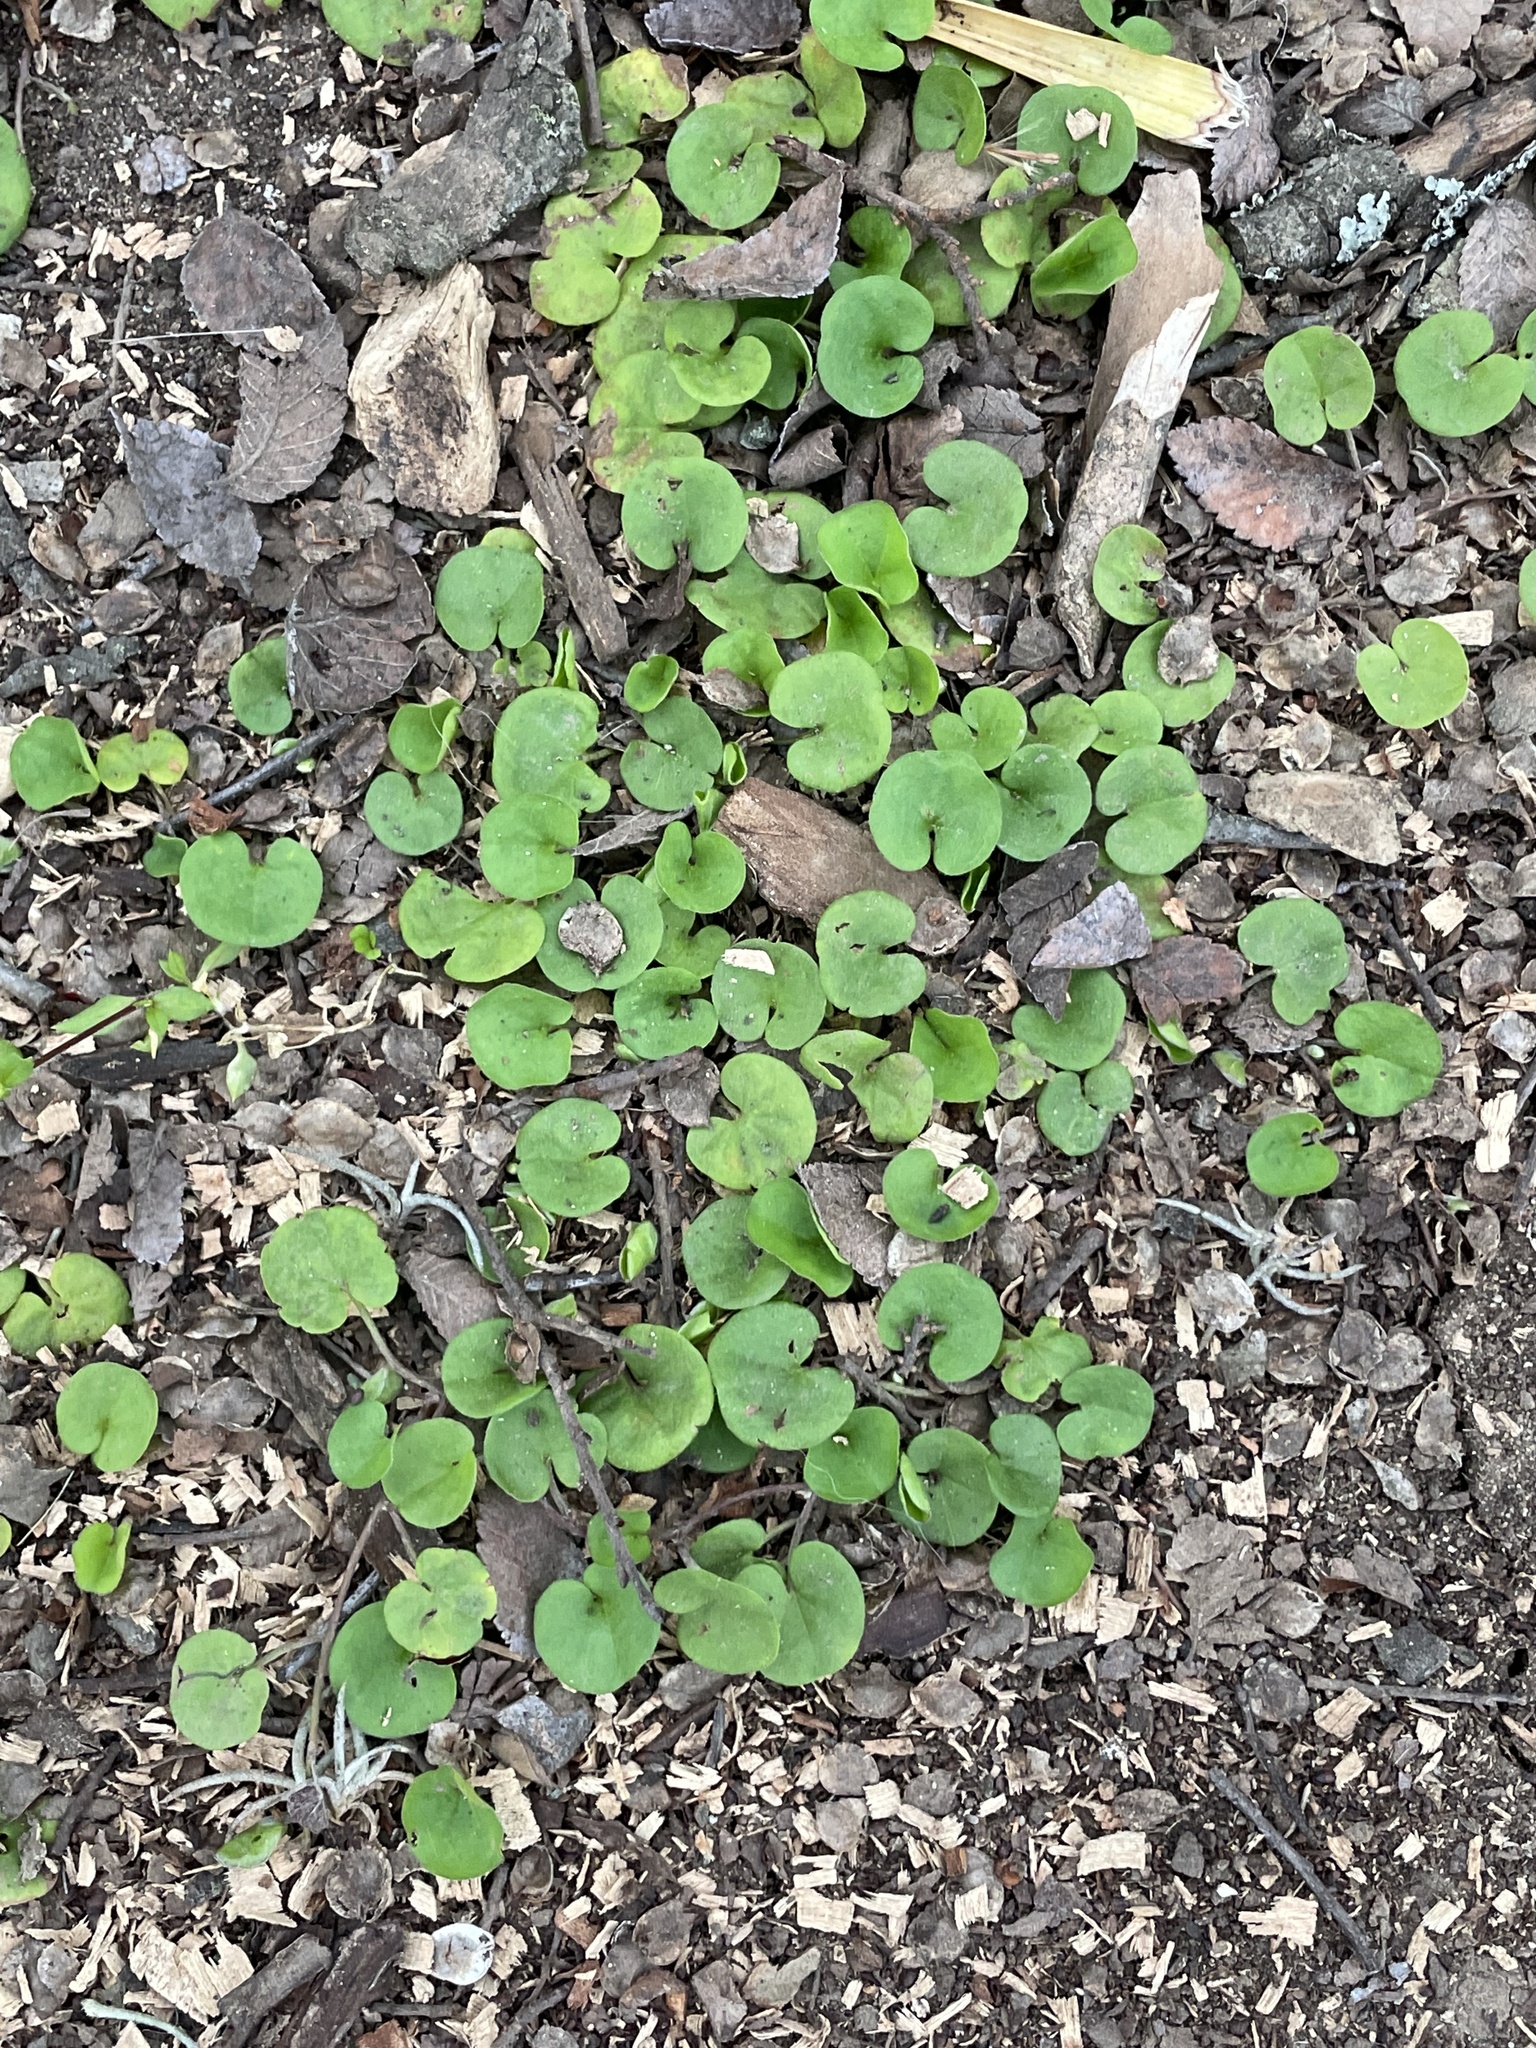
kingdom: Plantae
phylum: Tracheophyta
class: Magnoliopsida
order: Solanales
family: Convolvulaceae
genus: Dichondra
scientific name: Dichondra carolinensis
